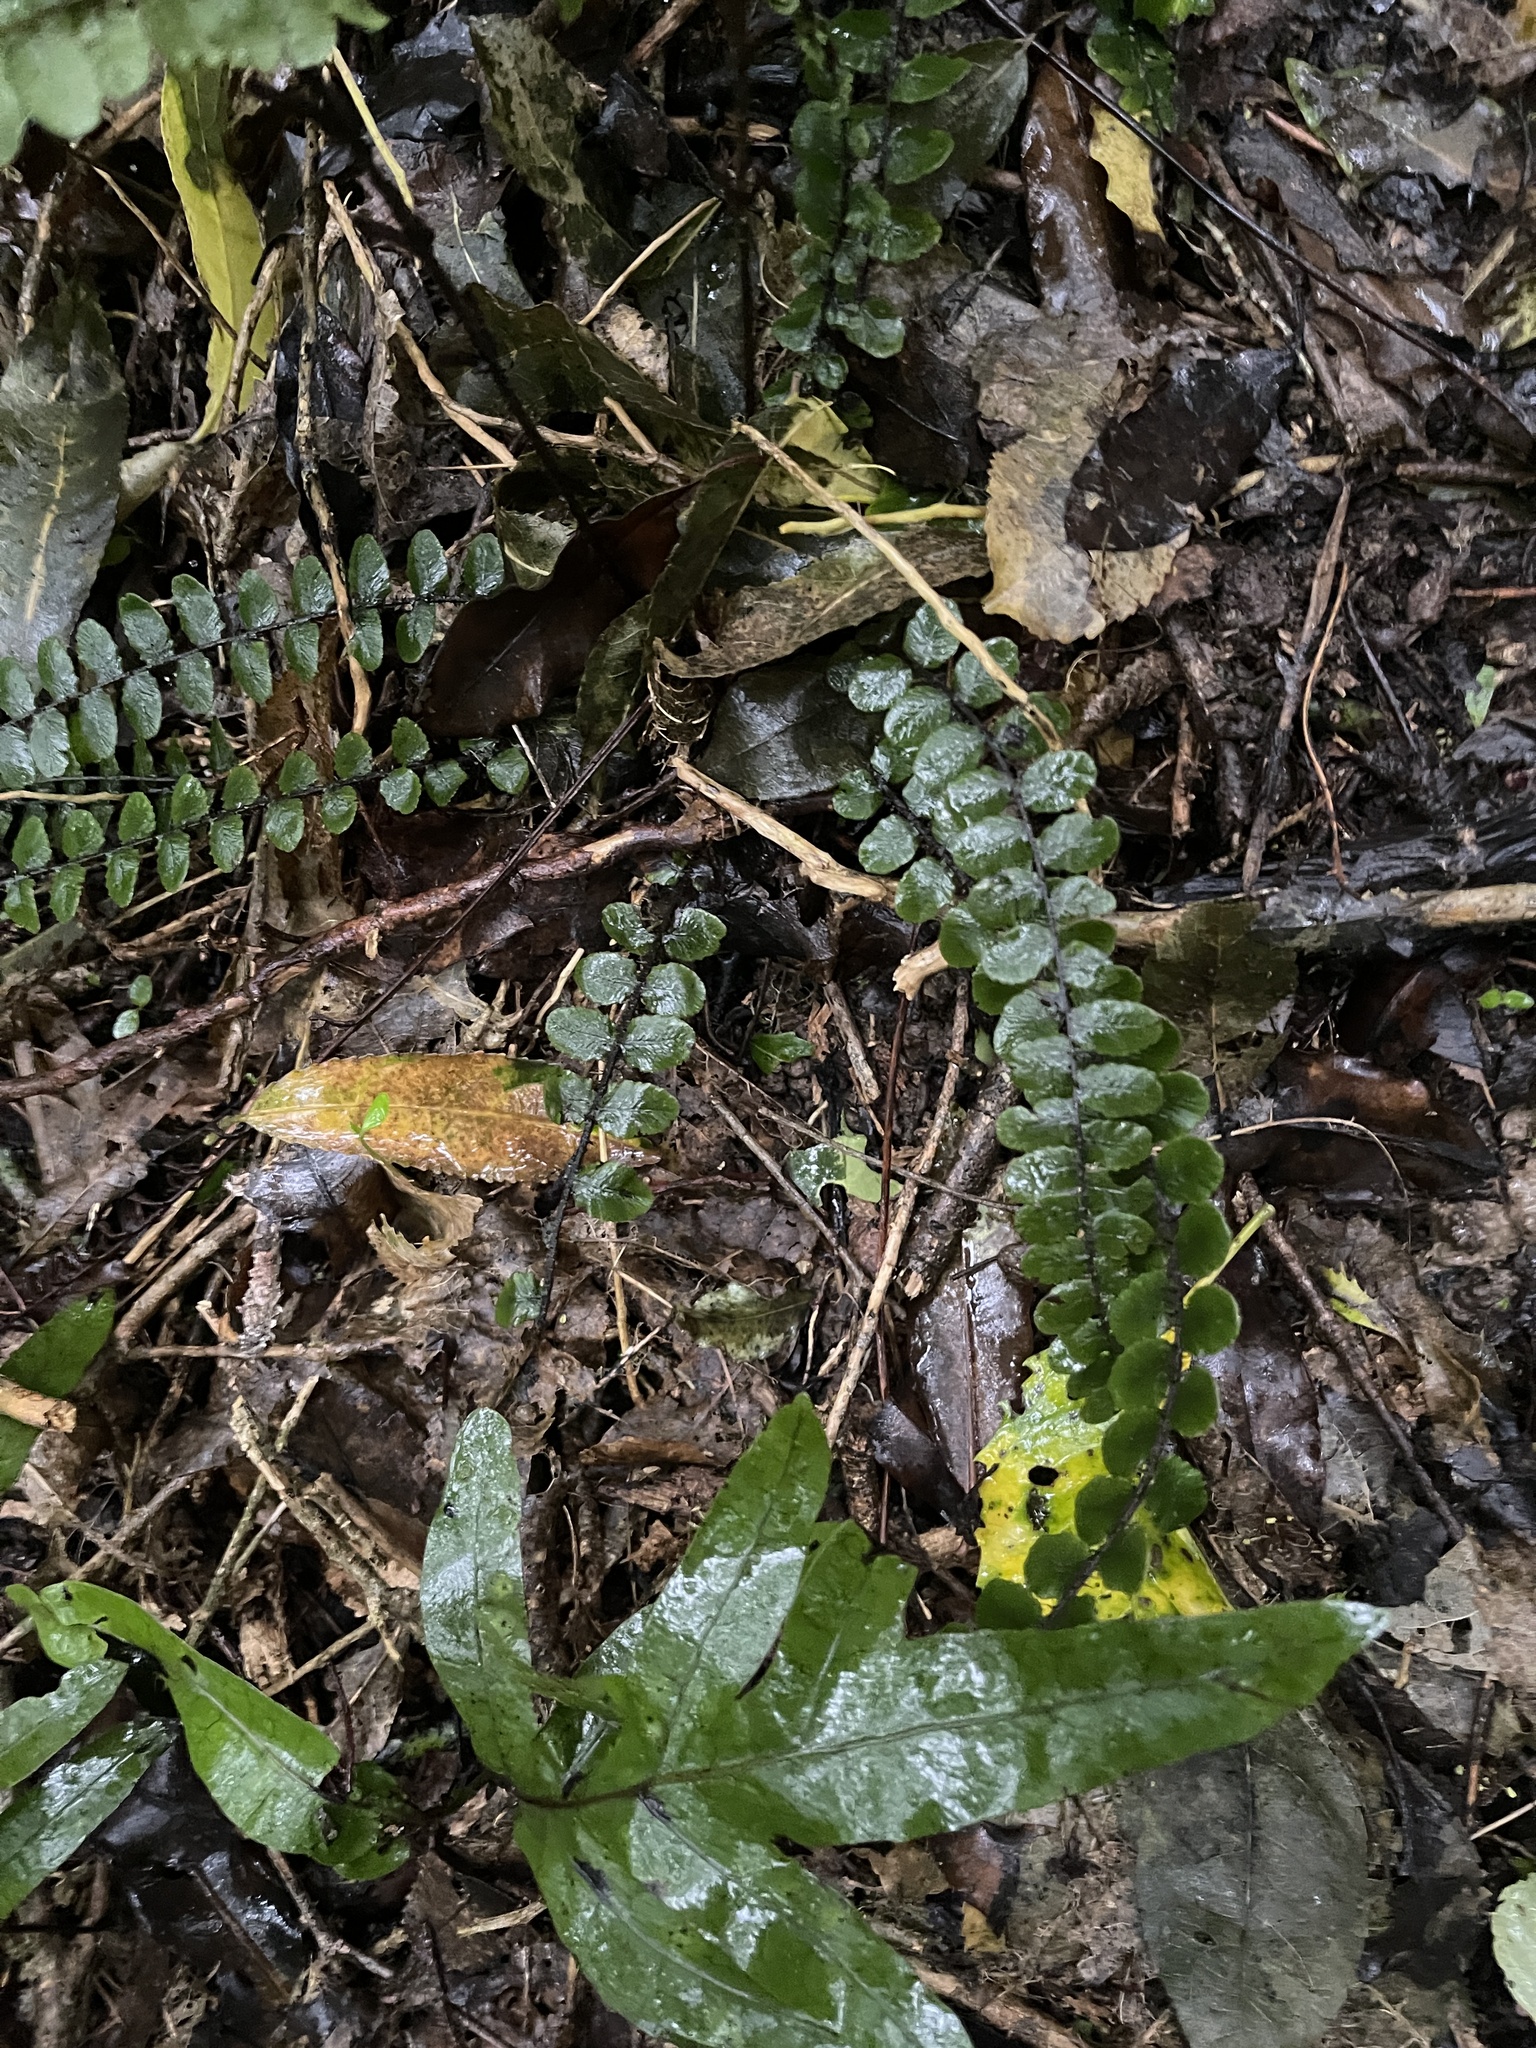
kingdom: Plantae
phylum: Tracheophyta
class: Polypodiopsida
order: Polypodiales
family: Blechnaceae
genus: Cranfillia
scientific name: Cranfillia fluviatilis
